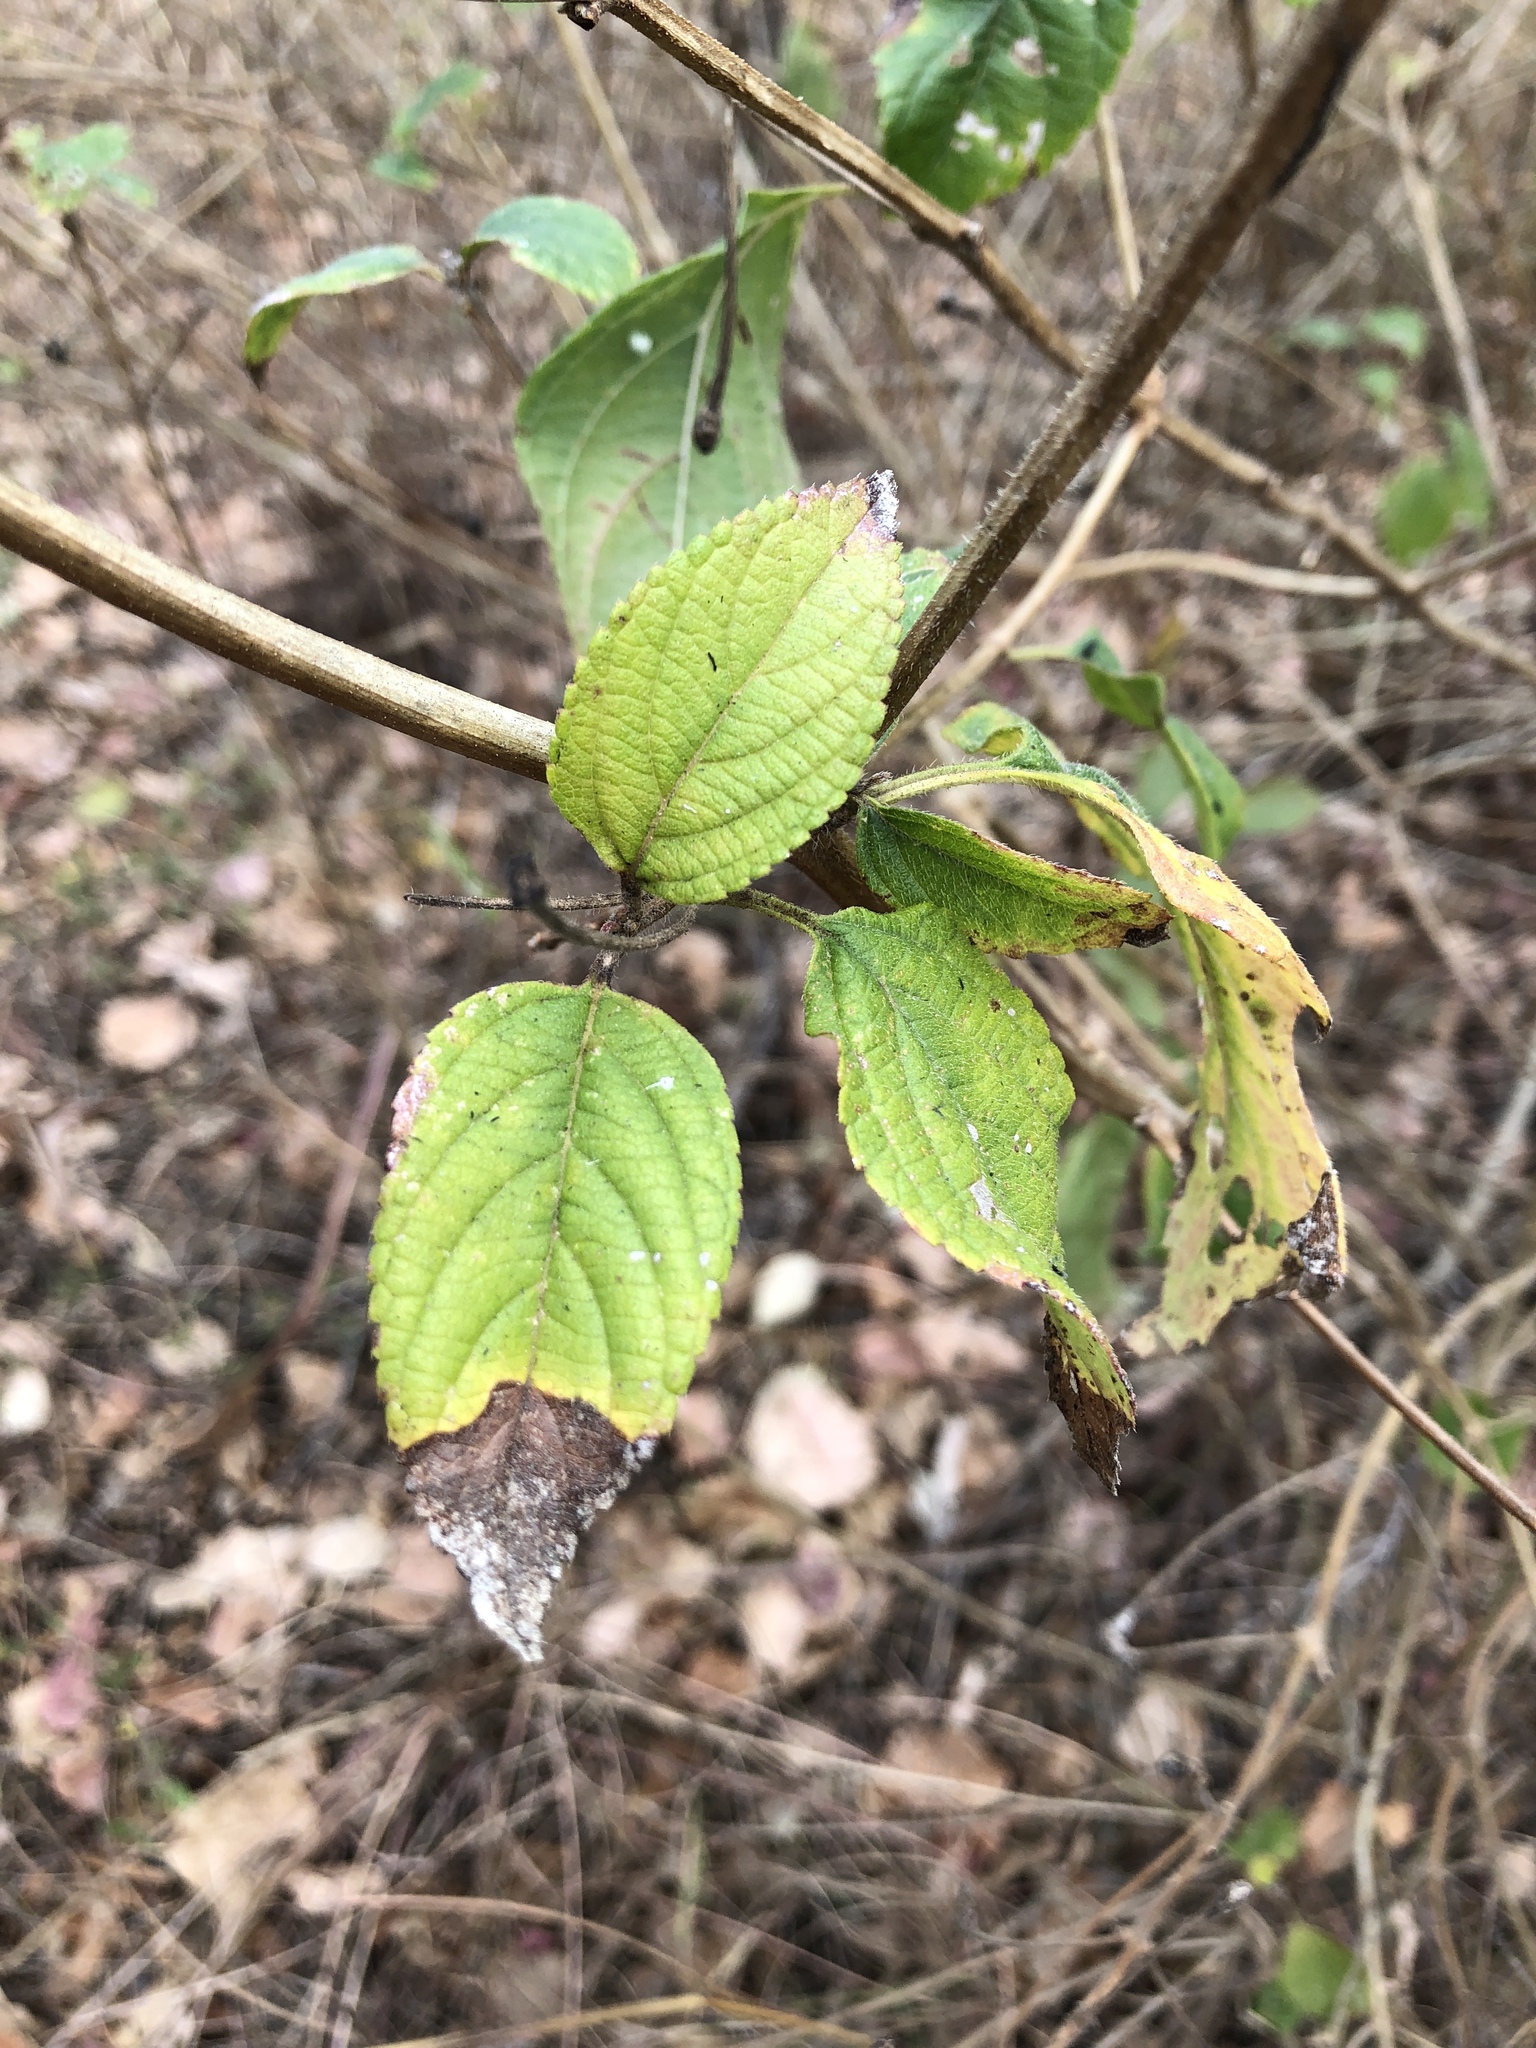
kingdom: Plantae
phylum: Tracheophyta
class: Magnoliopsida
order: Lamiales
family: Verbenaceae
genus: Lantana
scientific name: Lantana camara
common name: Lantana
